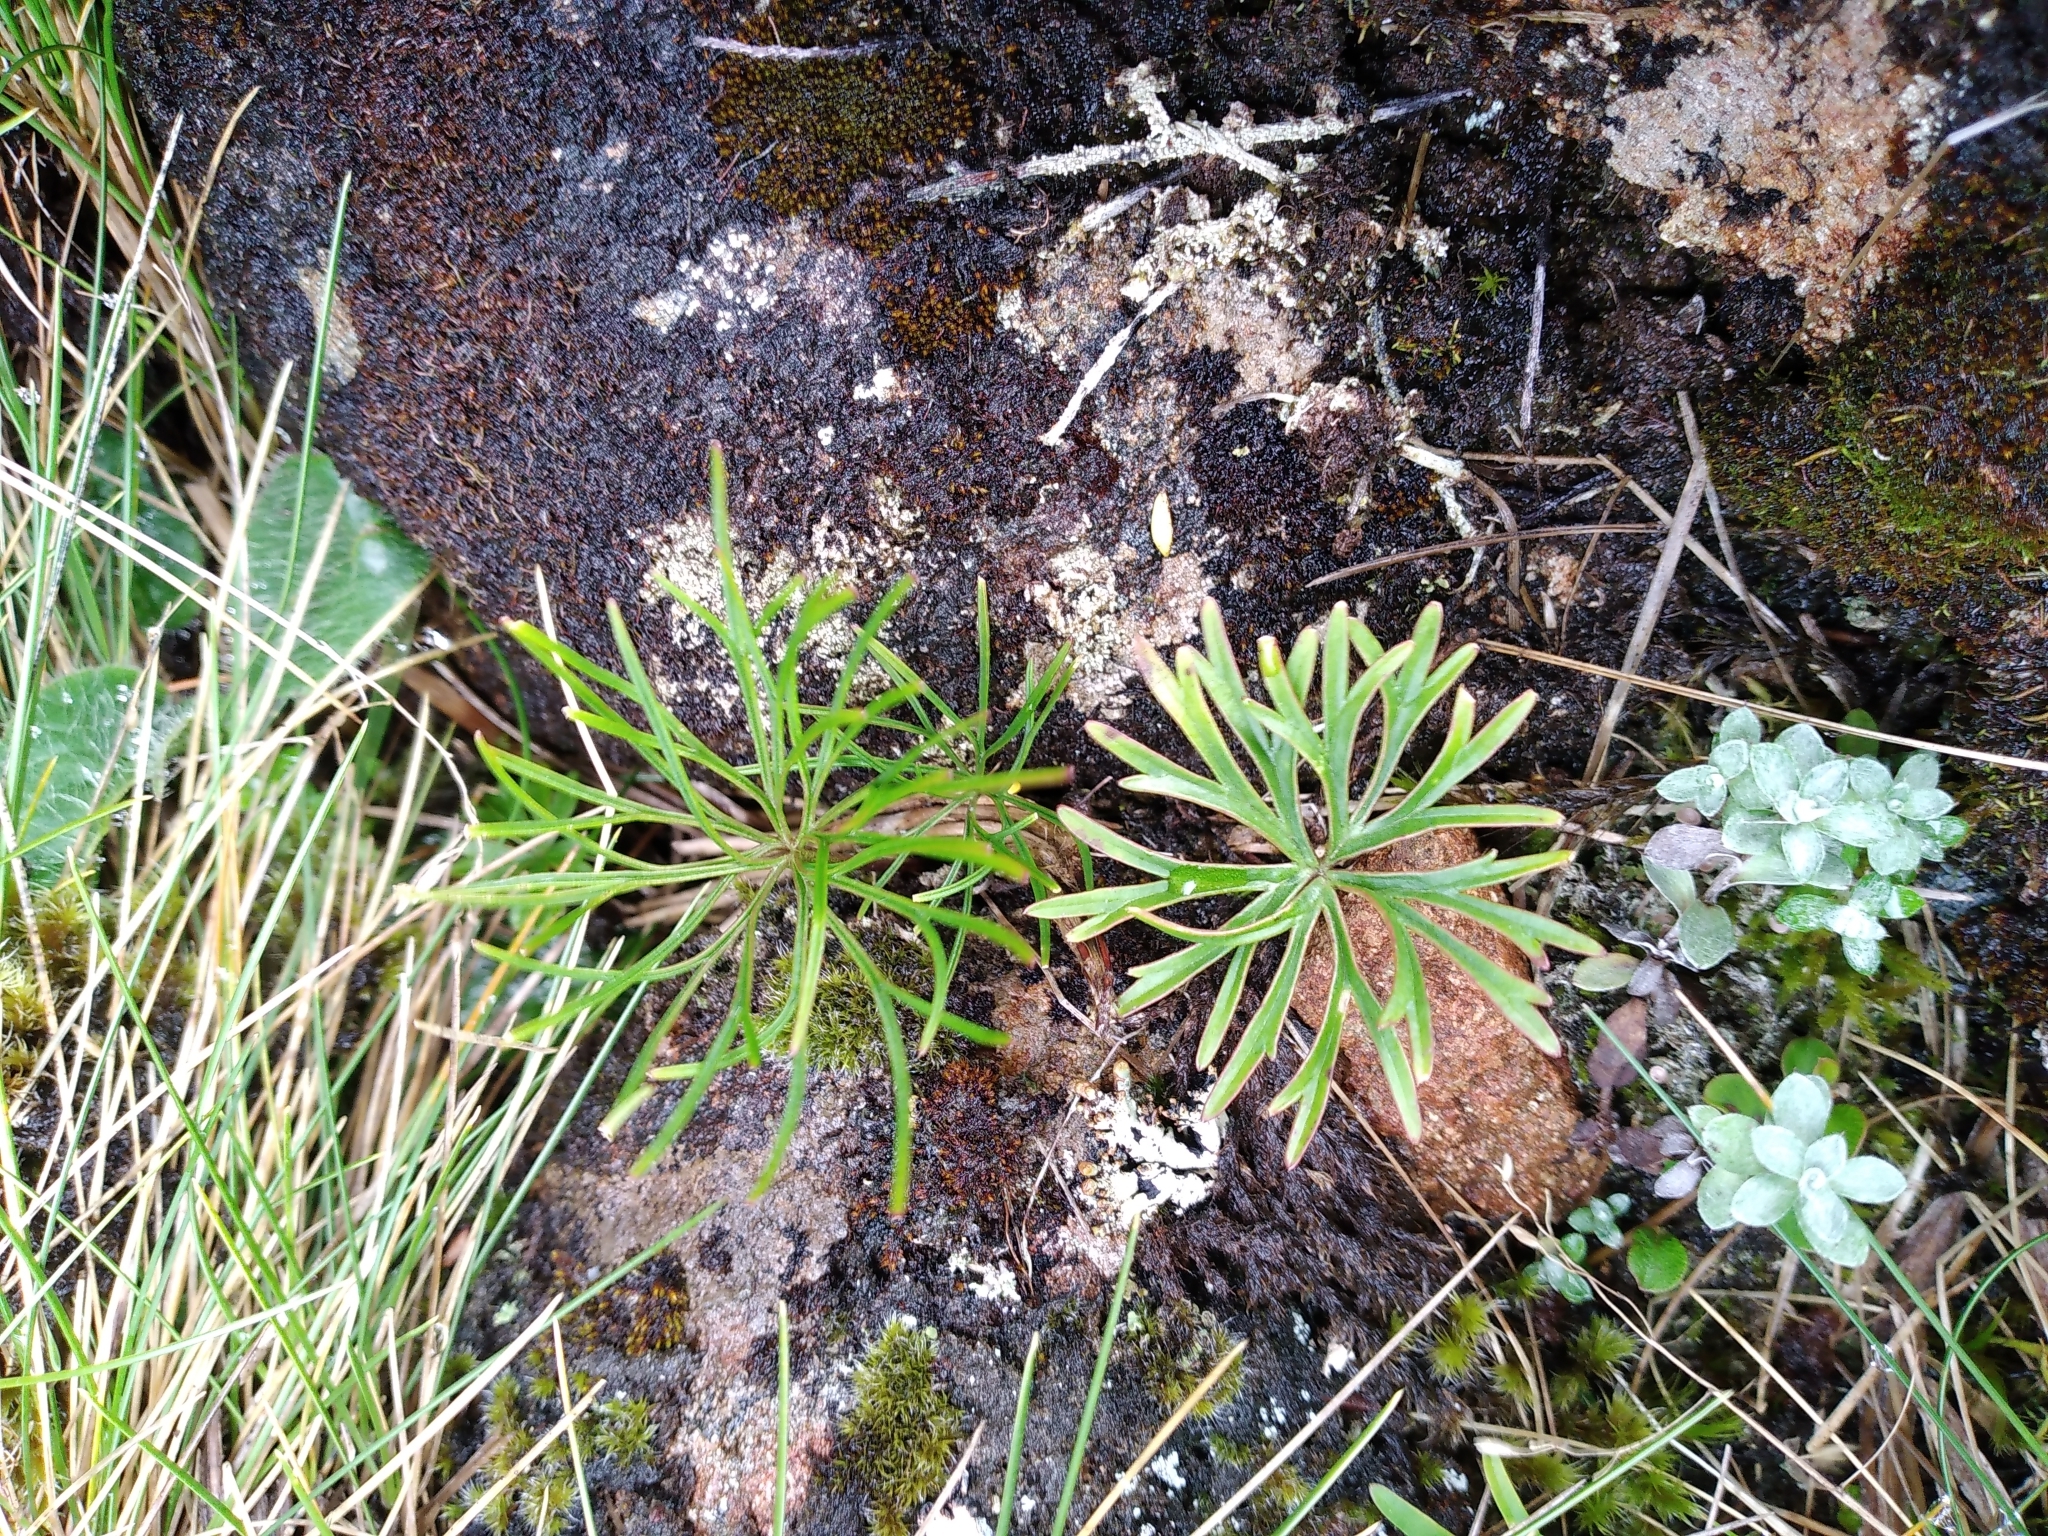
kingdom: Plantae
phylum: Tracheophyta
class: Magnoliopsida
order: Apiales
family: Apiaceae
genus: Anisotome
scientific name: Anisotome filifolia
